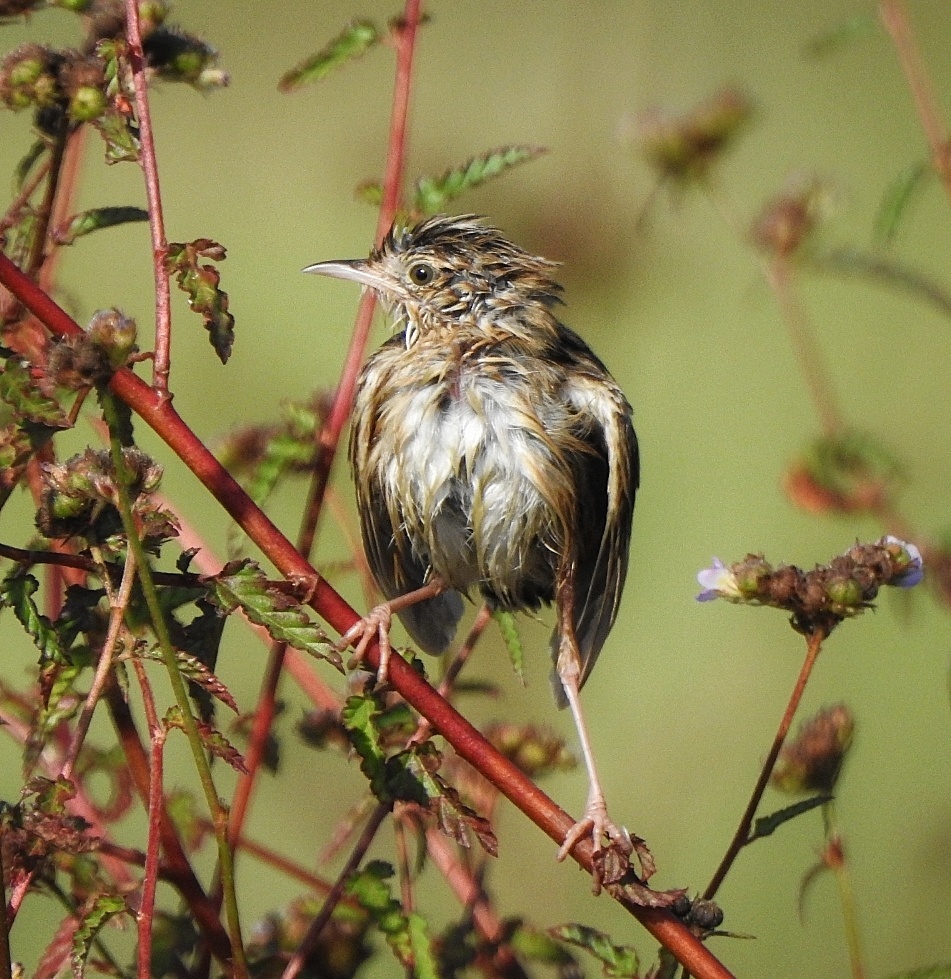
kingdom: Animalia
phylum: Chordata
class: Aves
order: Passeriformes
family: Cisticolidae
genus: Cisticola
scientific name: Cisticola juncidis
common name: Zitting cisticola
